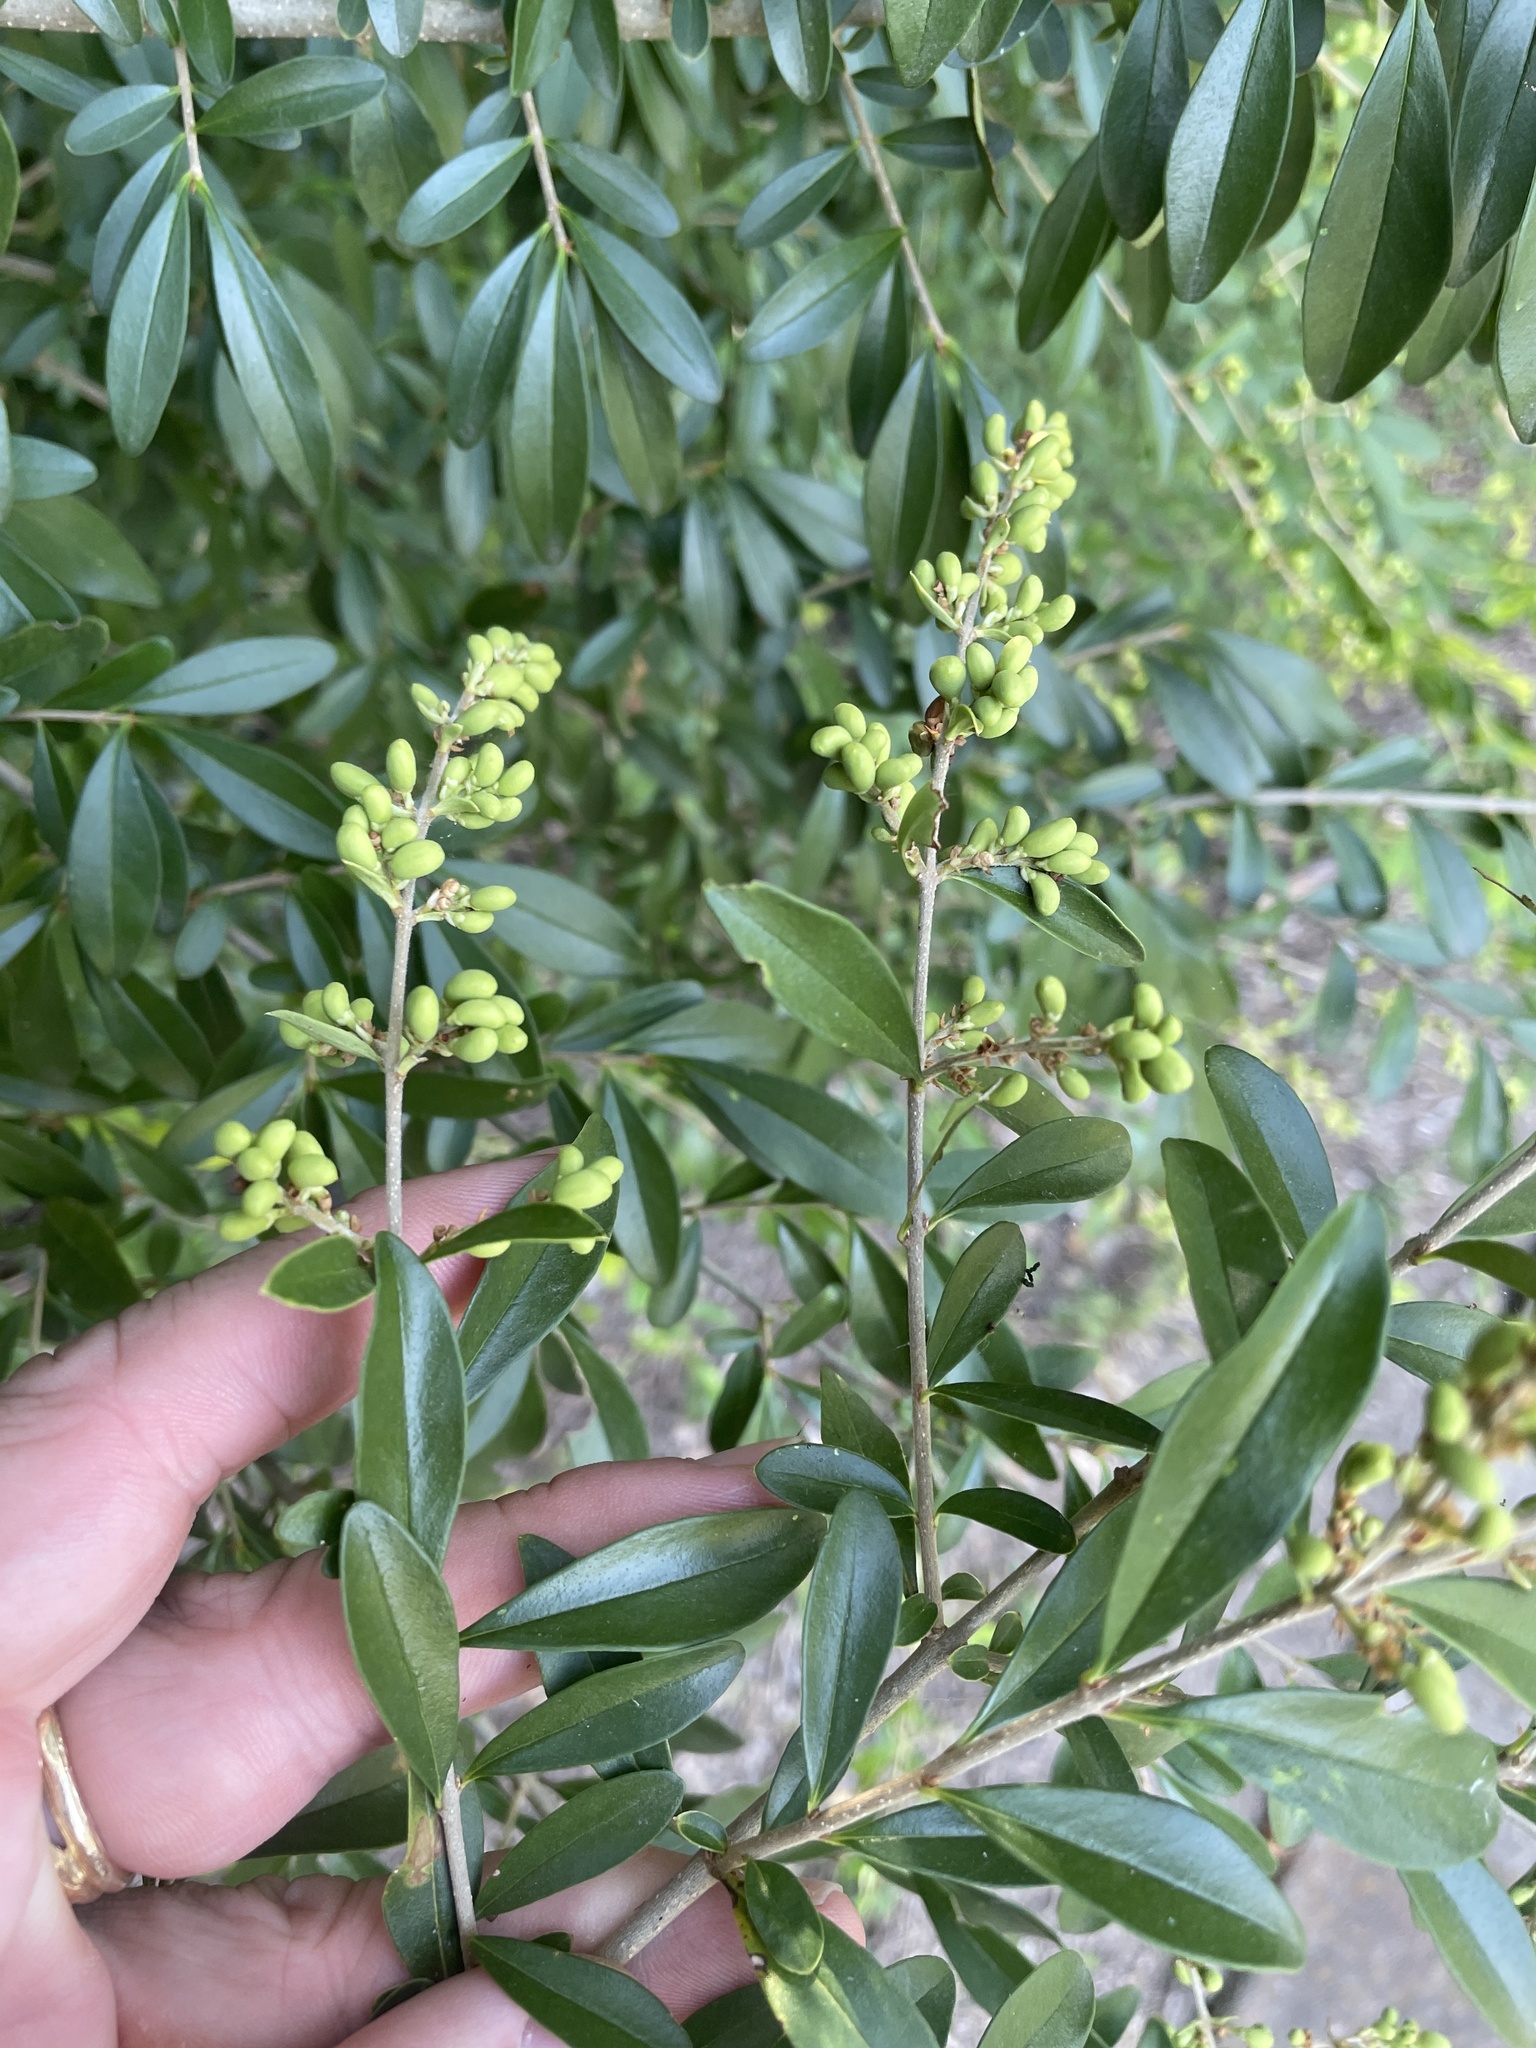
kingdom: Plantae
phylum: Tracheophyta
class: Magnoliopsida
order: Lamiales
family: Oleaceae
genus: Ligustrum
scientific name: Ligustrum quihoui
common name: Waxyleaf privet
